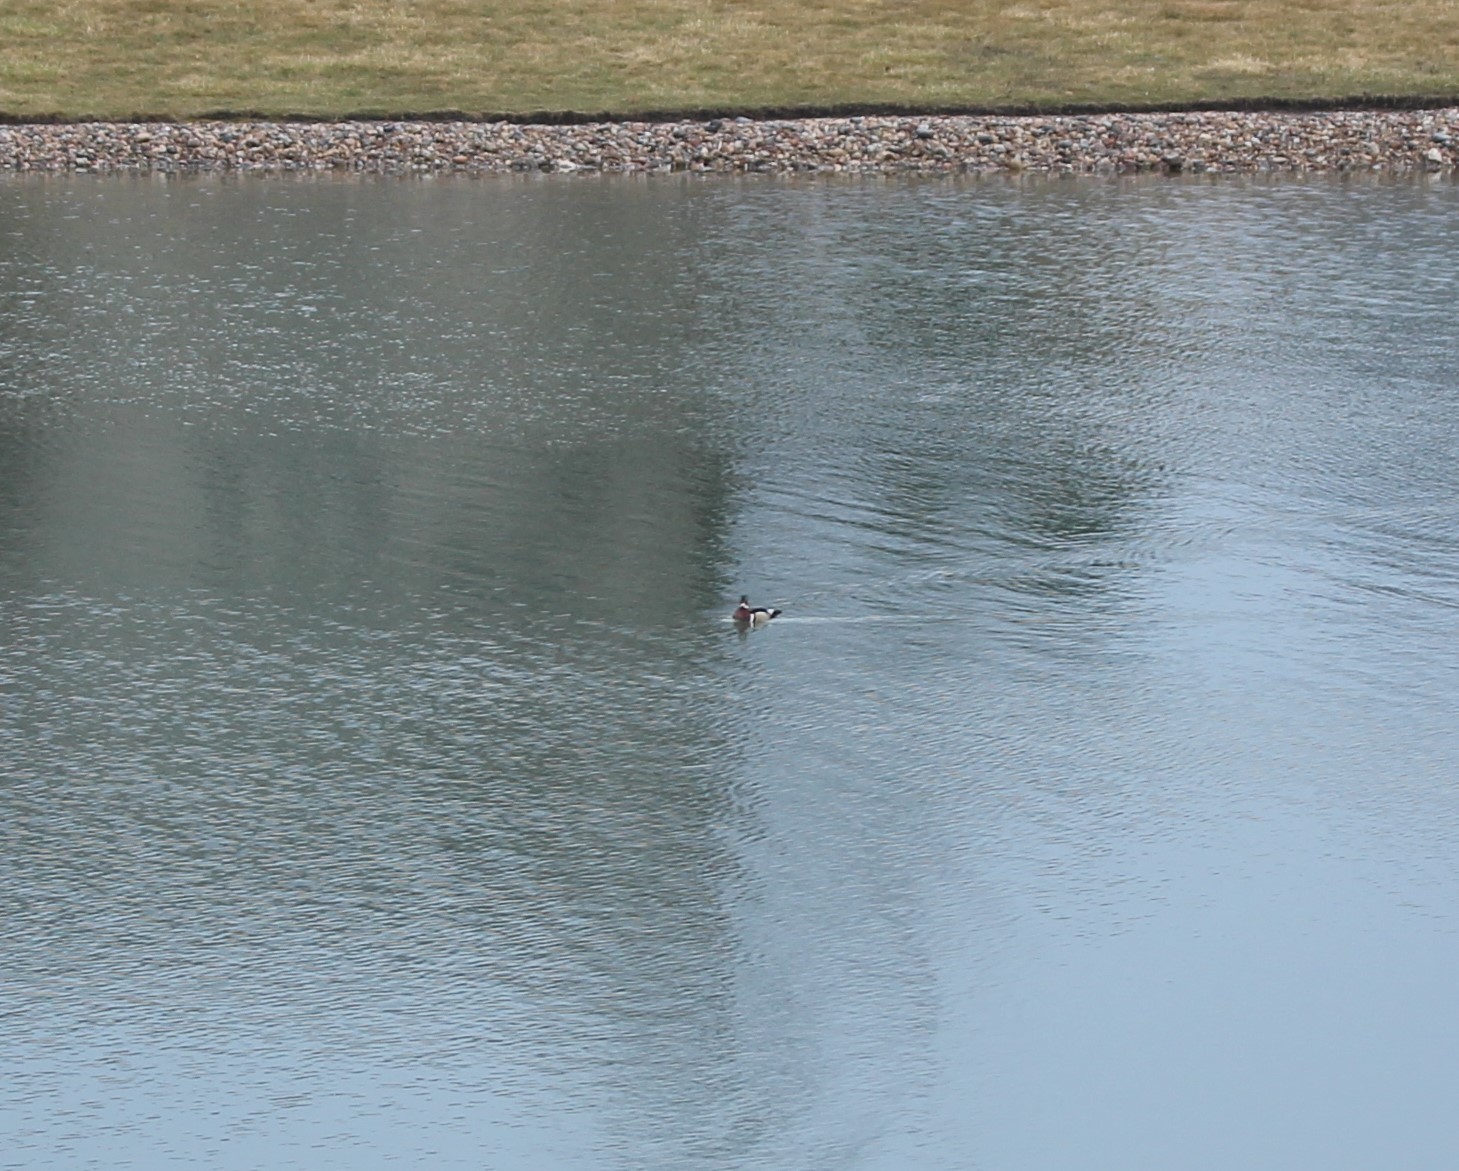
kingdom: Animalia
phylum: Chordata
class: Aves
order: Anseriformes
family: Anatidae
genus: Aix
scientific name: Aix sponsa
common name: Wood duck
